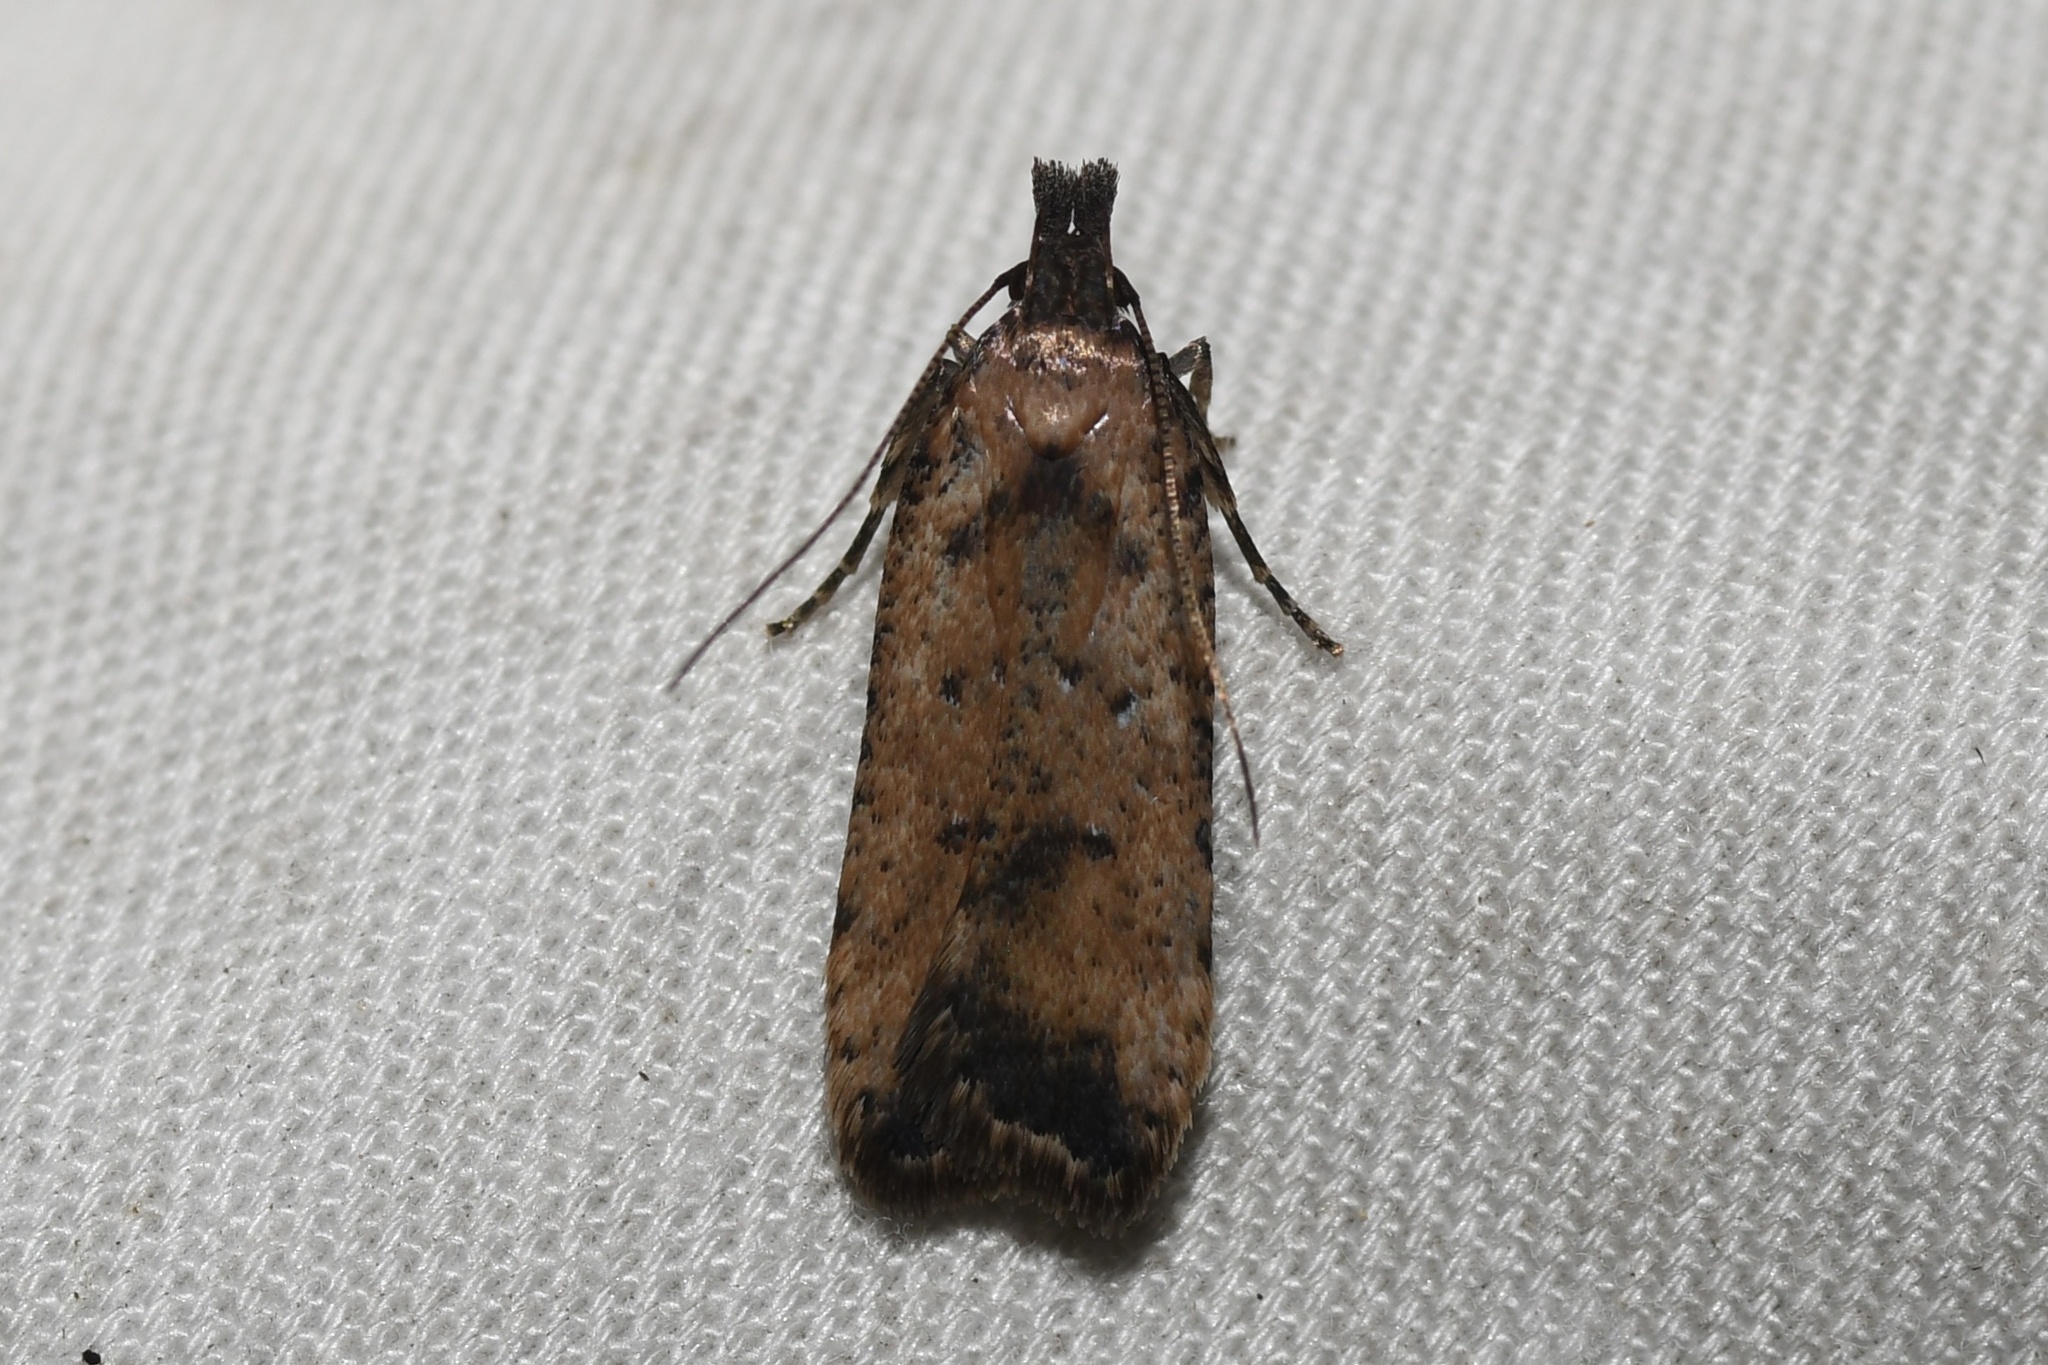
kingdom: Animalia
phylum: Arthropoda
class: Insecta
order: Lepidoptera
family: Gelechiidae
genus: Dichomeris
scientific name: Dichomeris vacciniella
